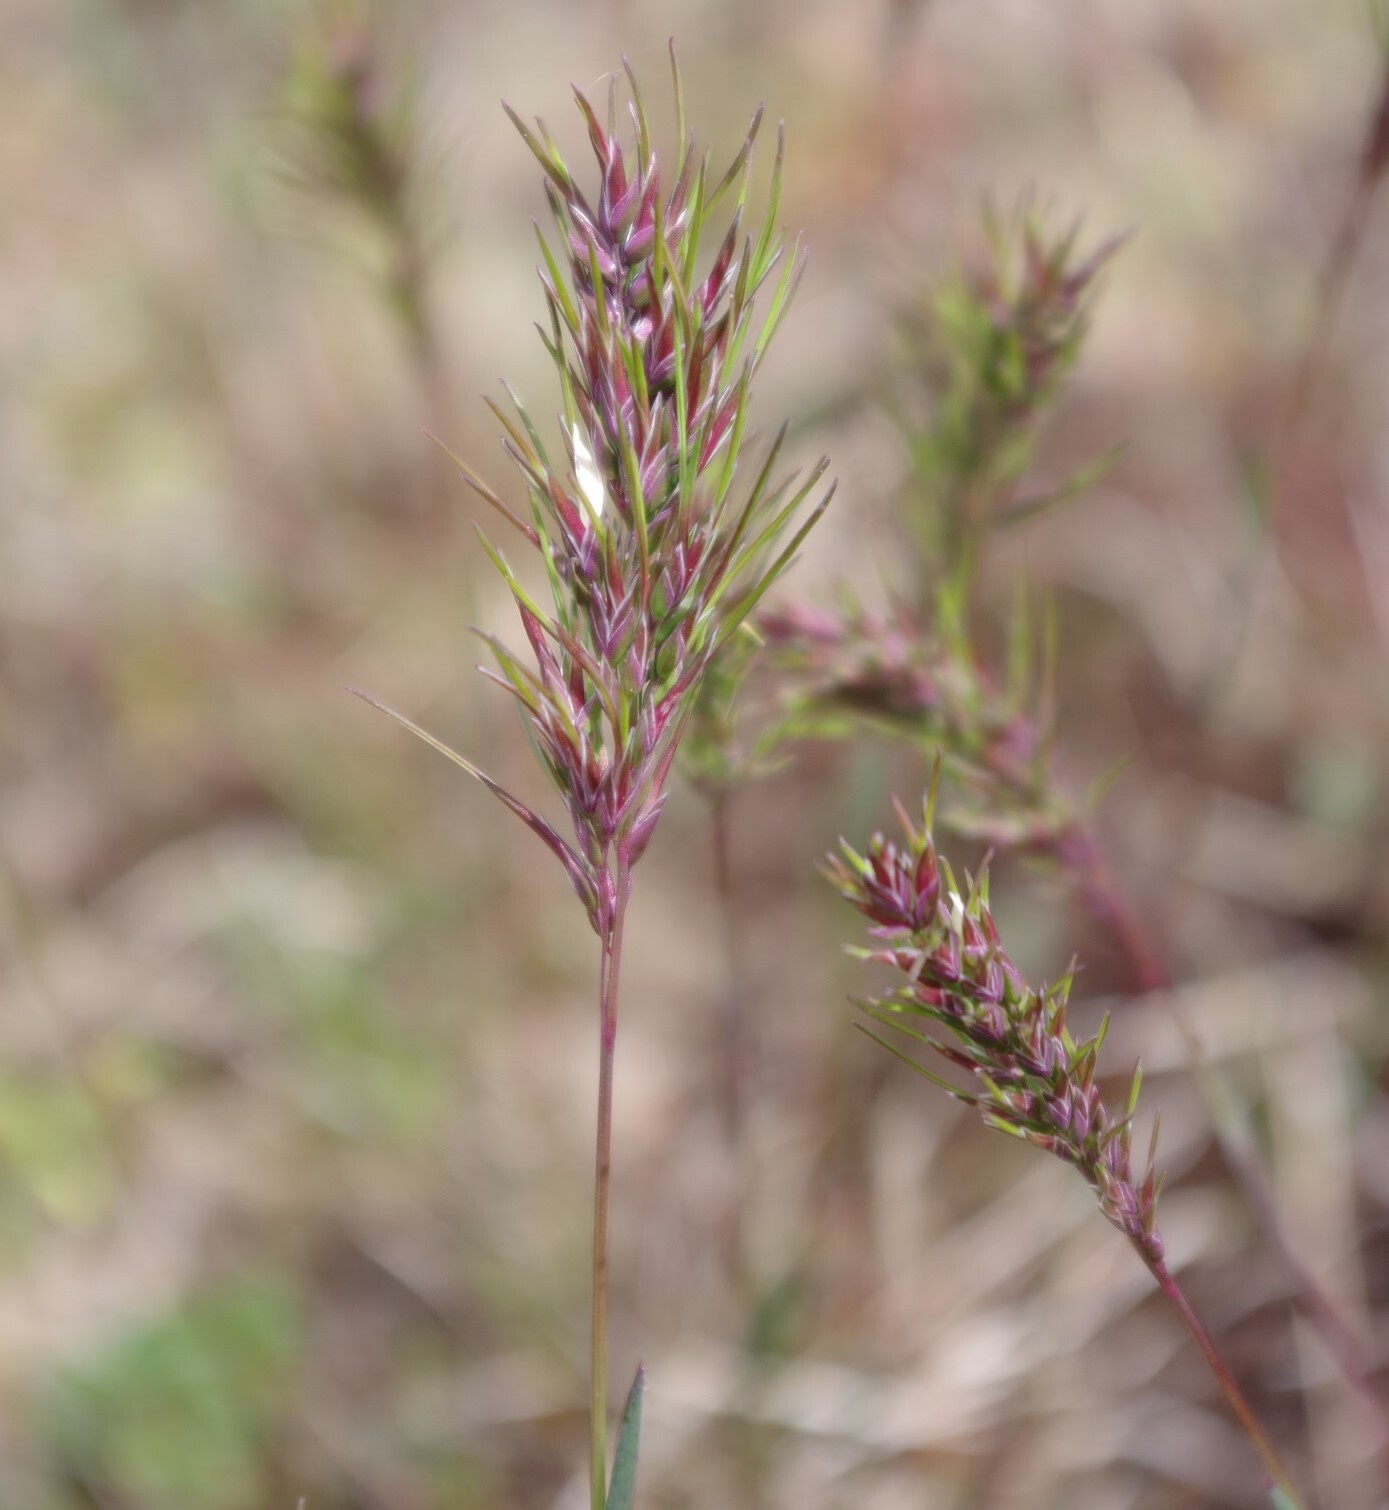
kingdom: Plantae
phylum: Tracheophyta
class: Liliopsida
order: Poales
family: Poaceae
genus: Poa
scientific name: Poa bulbosa
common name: Bulbous bluegrass
